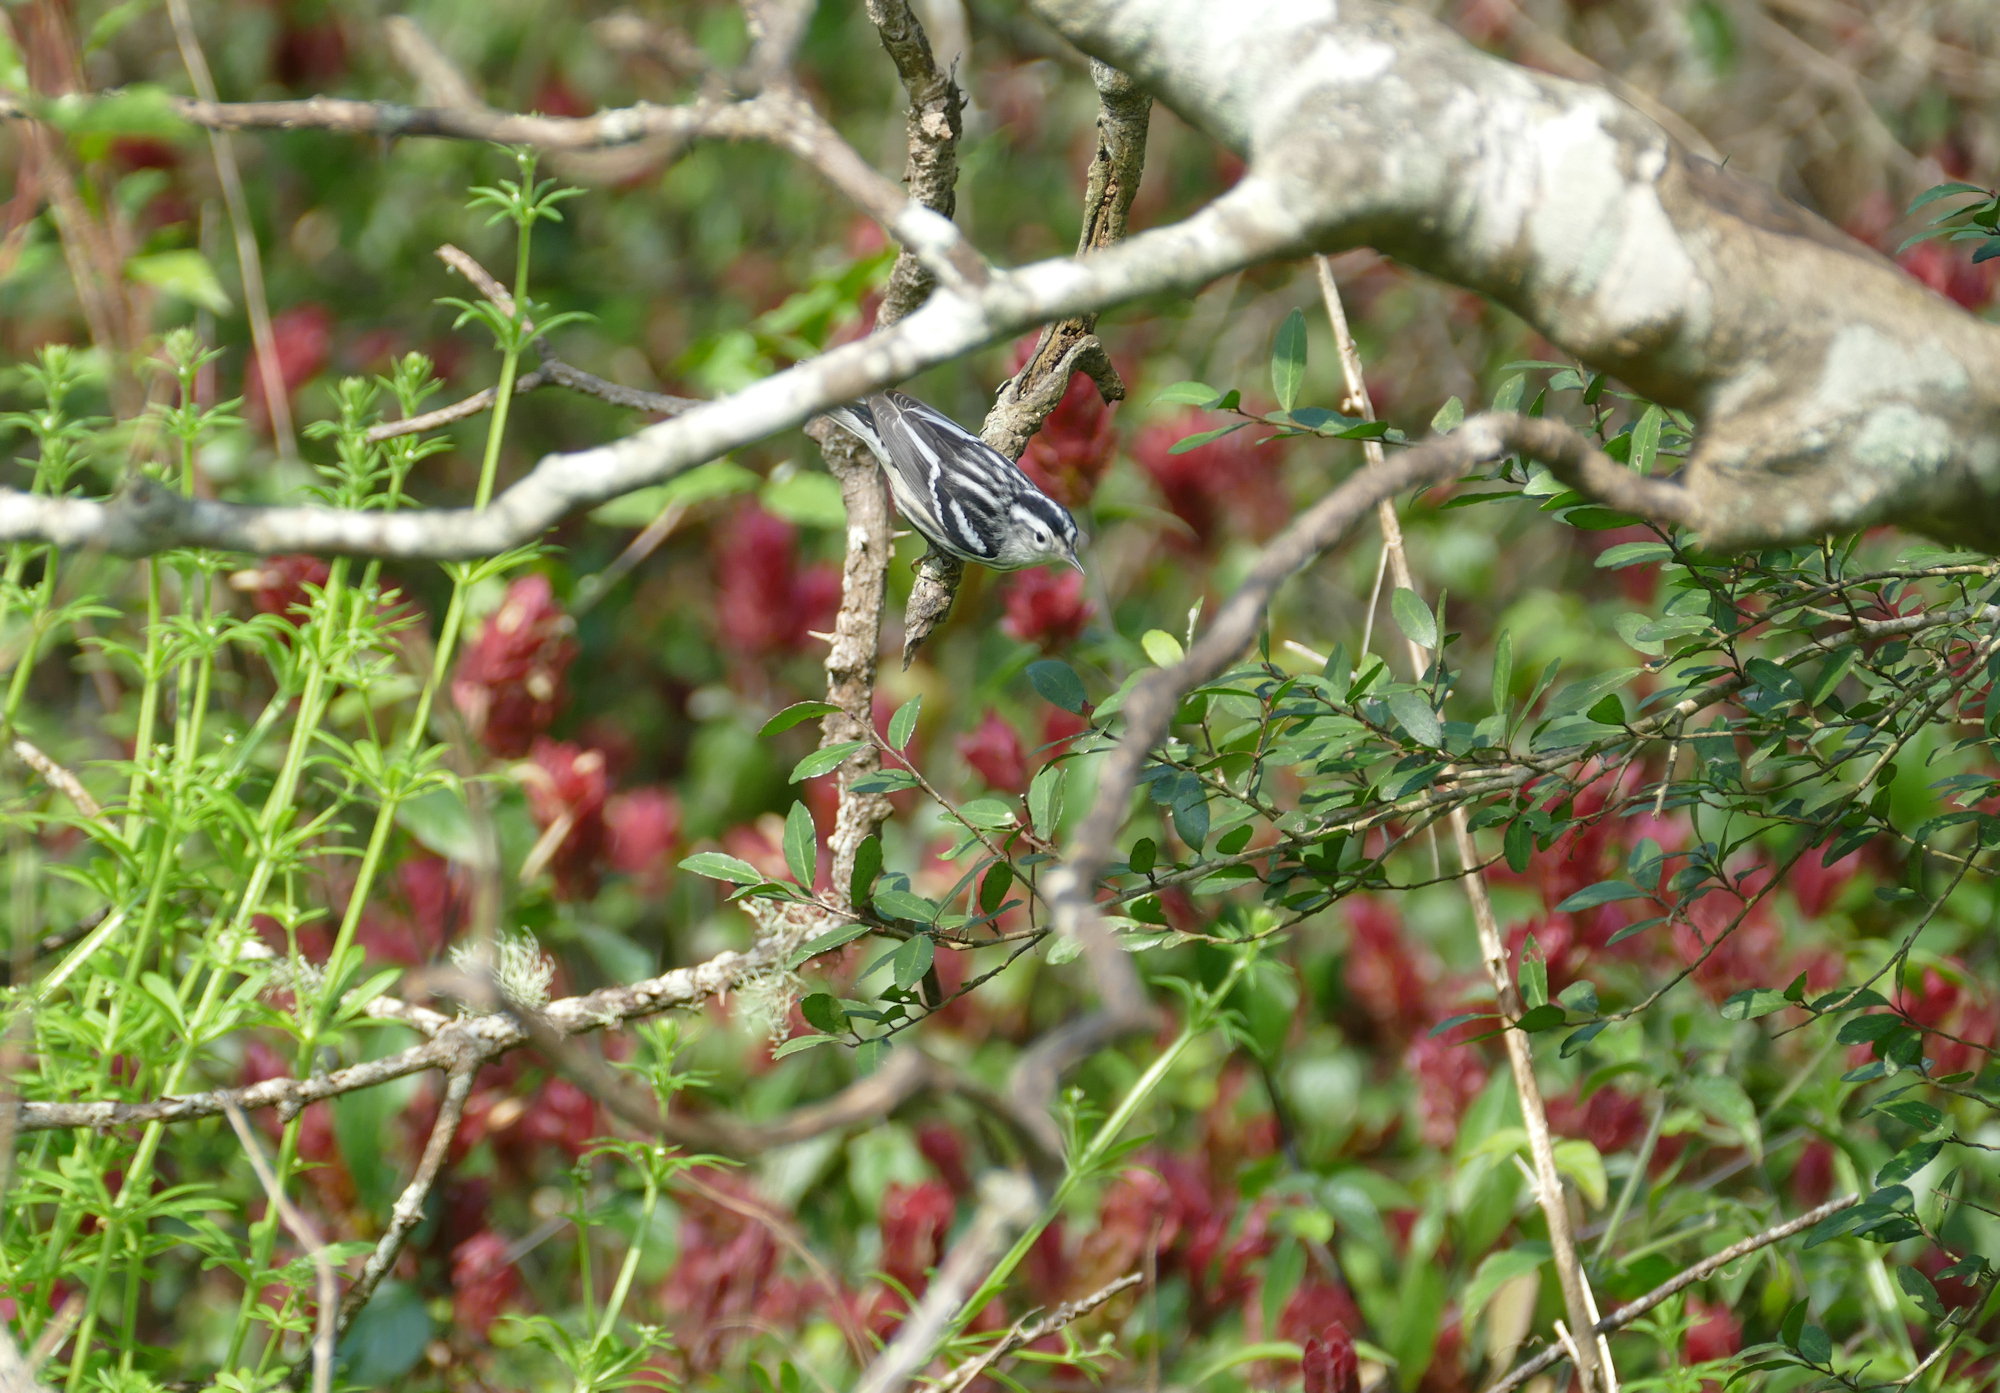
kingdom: Animalia
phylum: Chordata
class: Aves
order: Passeriformes
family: Parulidae
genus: Mniotilta
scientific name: Mniotilta varia
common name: Black-and-white warbler
